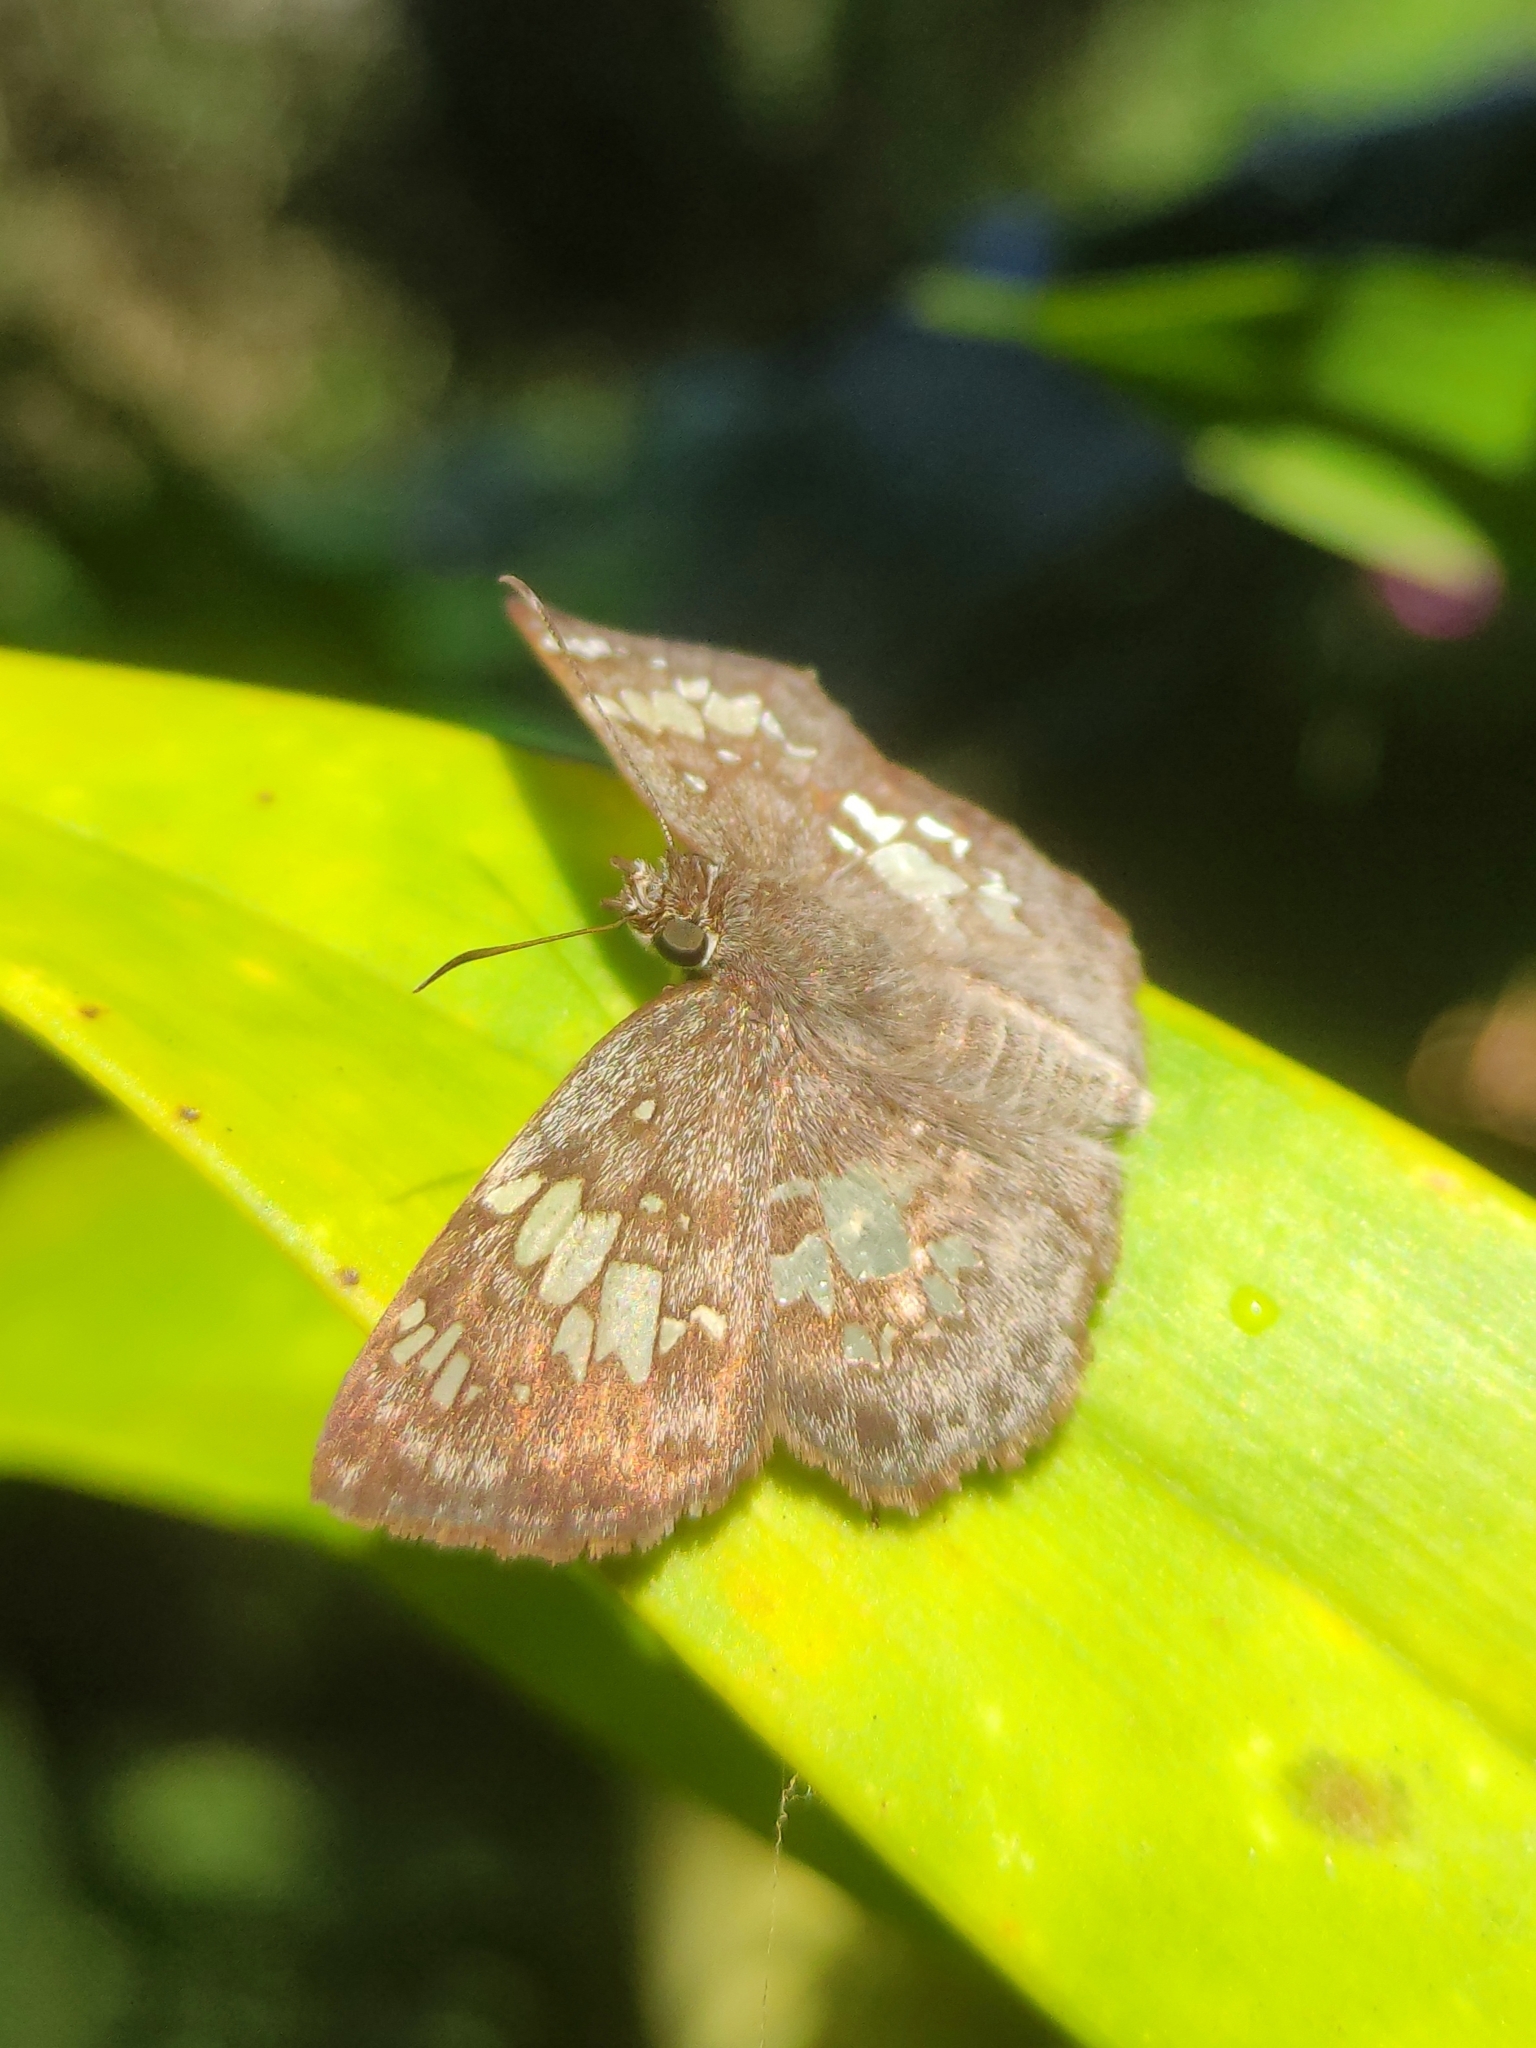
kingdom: Animalia
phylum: Arthropoda
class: Insecta
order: Lepidoptera
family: Hesperiidae
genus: Xenophanes
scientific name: Xenophanes tryxus
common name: Glassy-winged skipper
